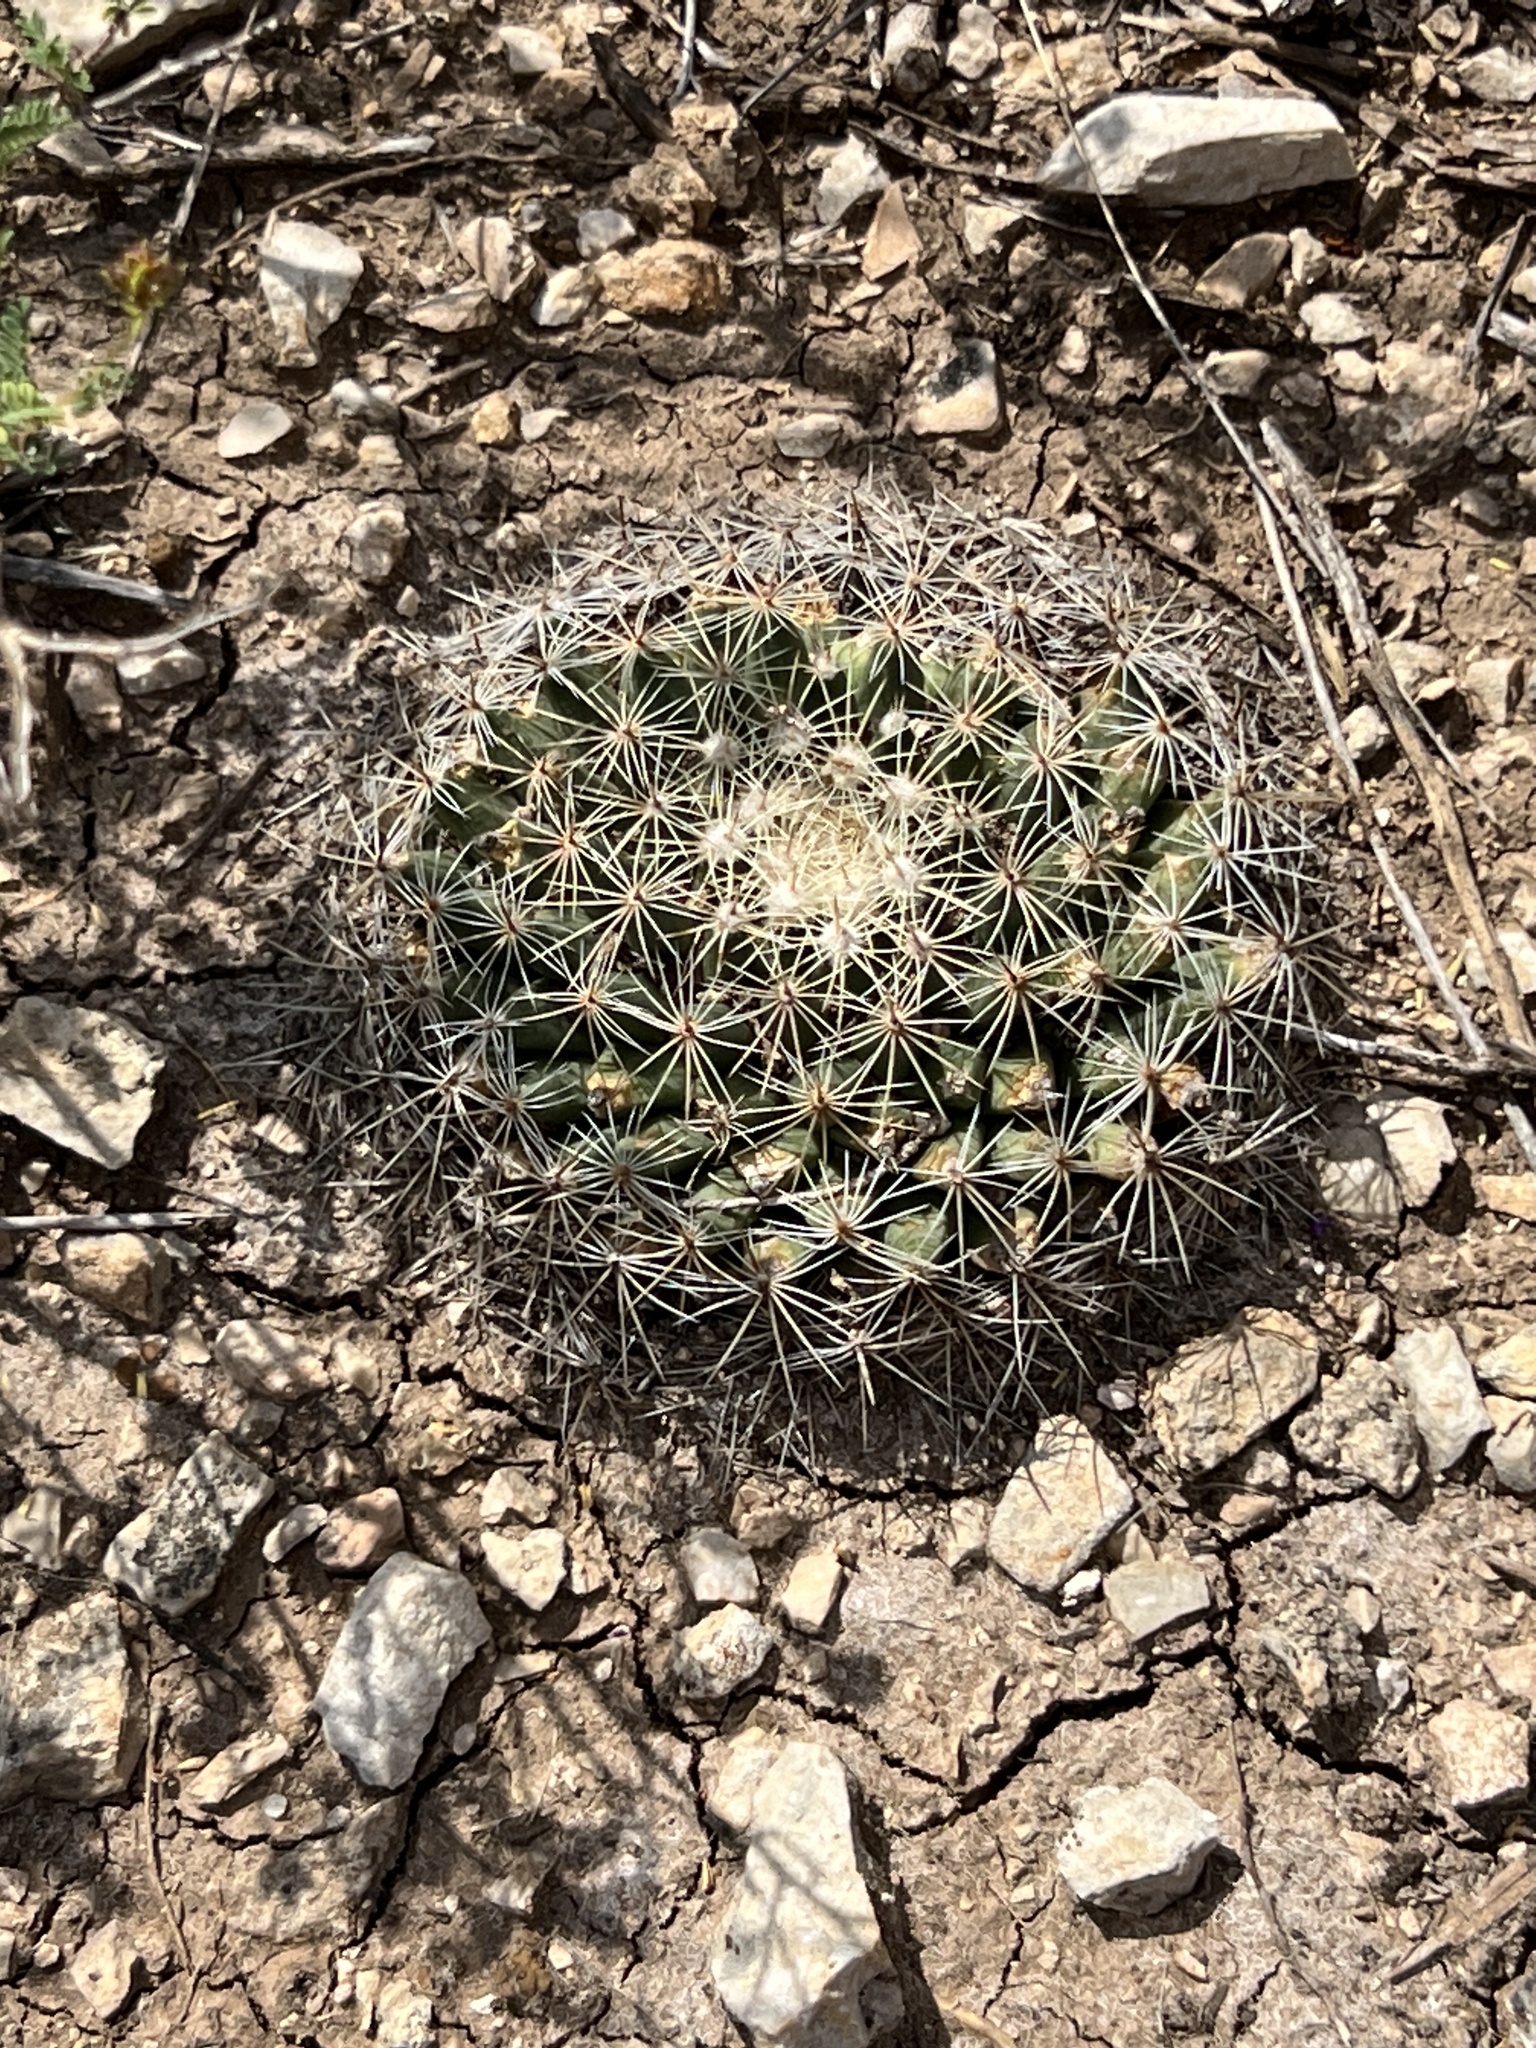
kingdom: Plantae
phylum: Tracheophyta
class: Magnoliopsida
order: Caryophyllales
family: Cactaceae
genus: Mammillaria
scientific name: Mammillaria heyderi
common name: Little nipple cactus
